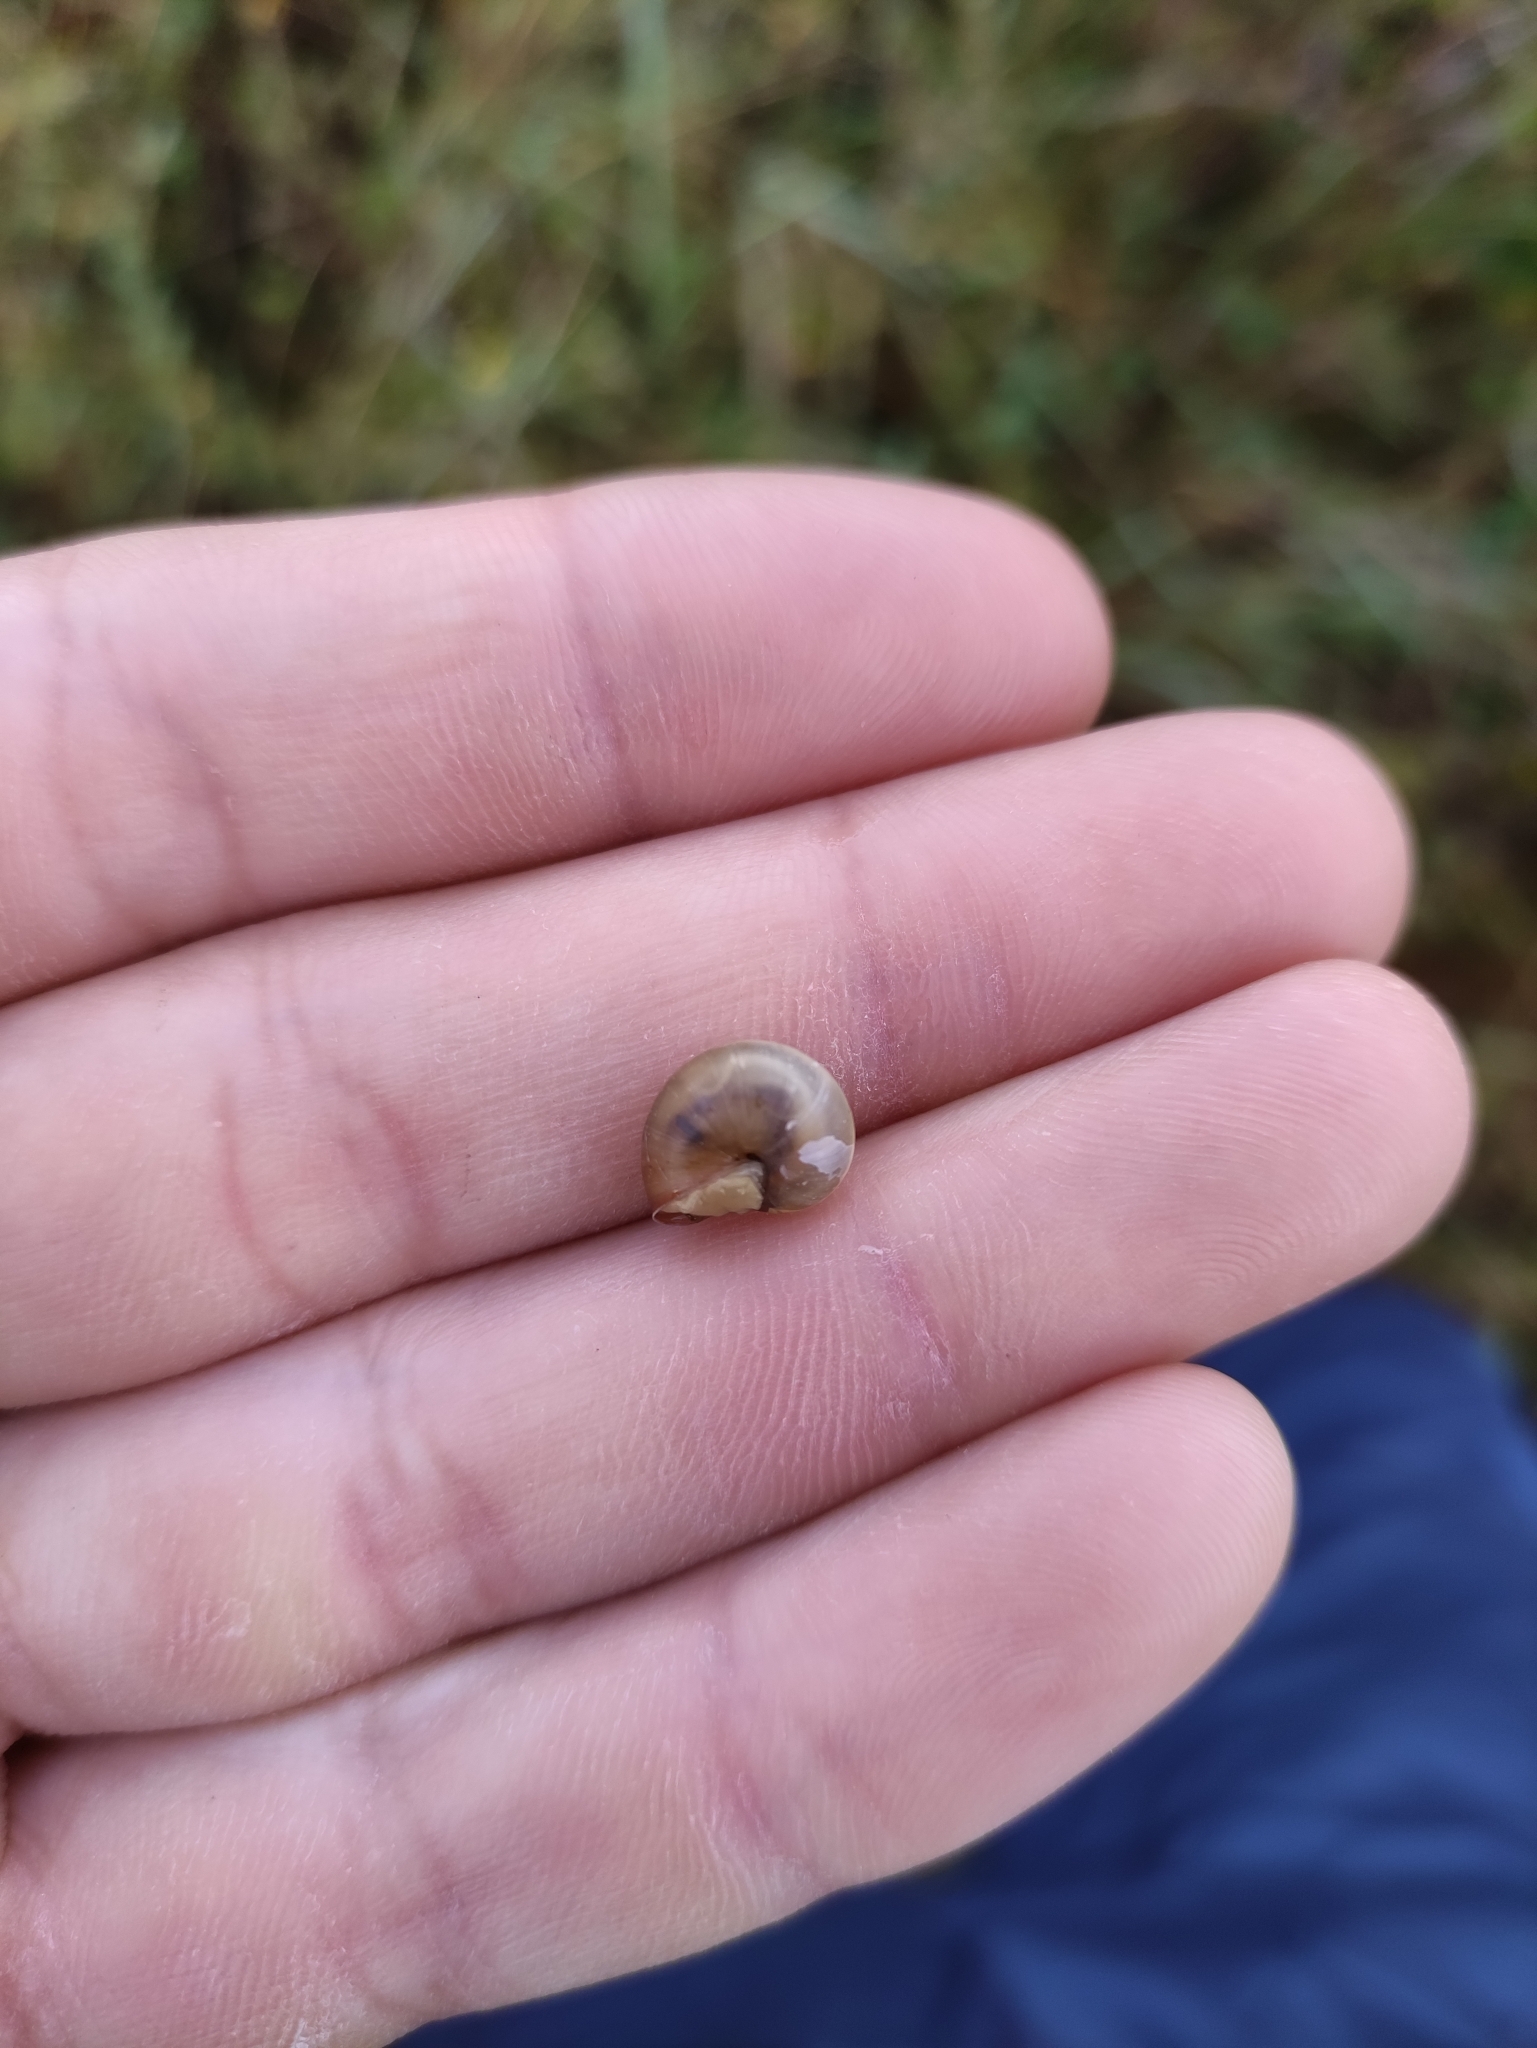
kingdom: Animalia
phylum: Mollusca
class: Gastropoda
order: Stylommatophora
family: Hygromiidae
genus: Monacha
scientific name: Monacha cartusiana
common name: Carthusian snail
